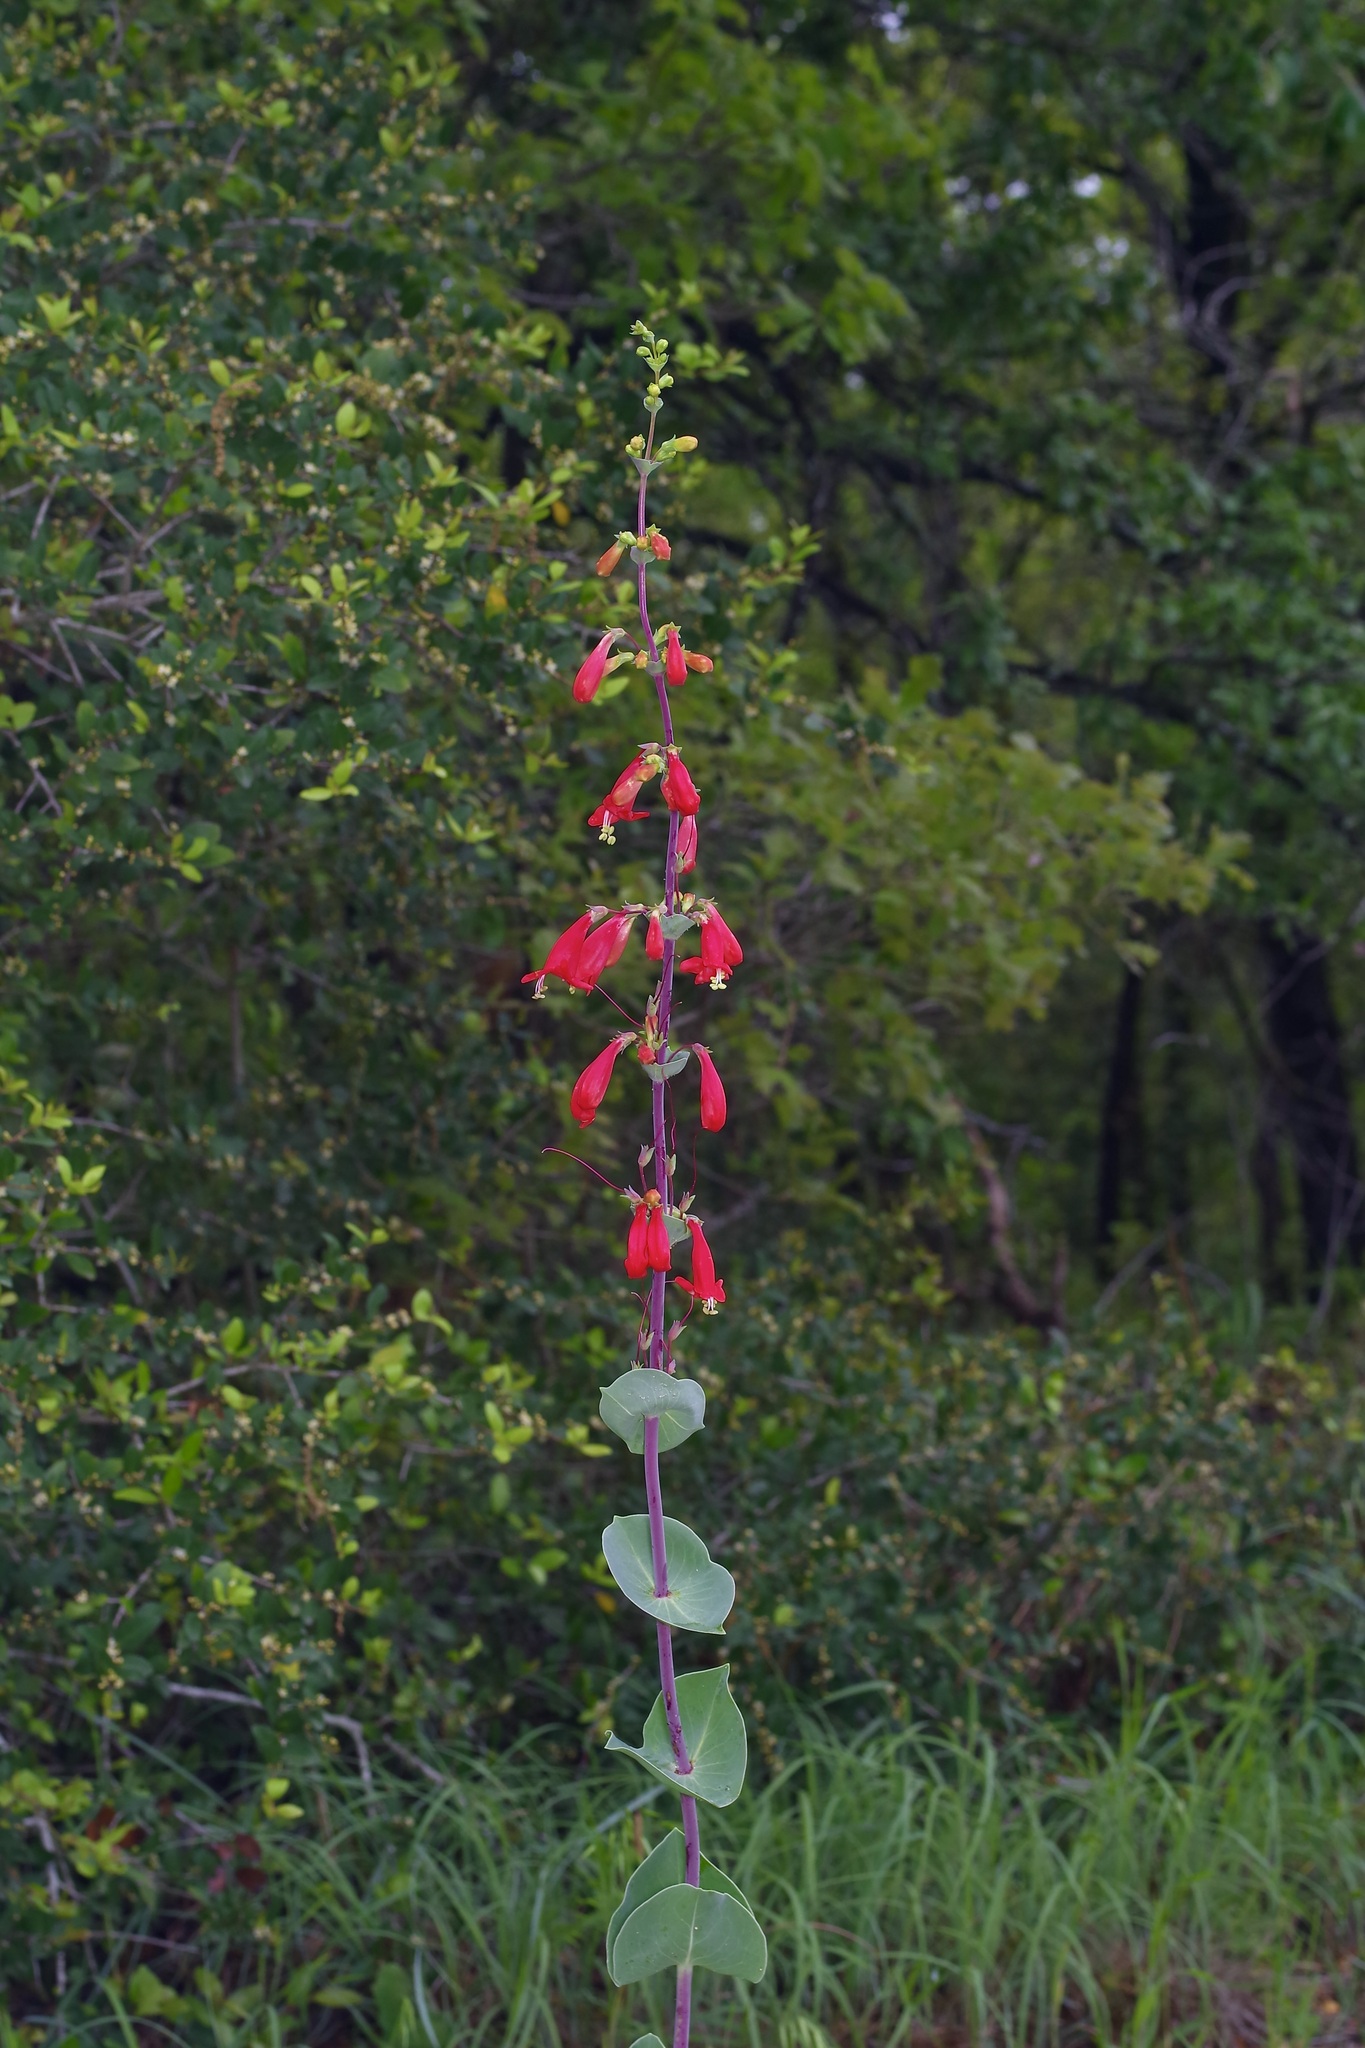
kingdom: Plantae
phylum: Tracheophyta
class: Magnoliopsida
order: Lamiales
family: Plantaginaceae
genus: Penstemon
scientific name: Penstemon murrayanus
